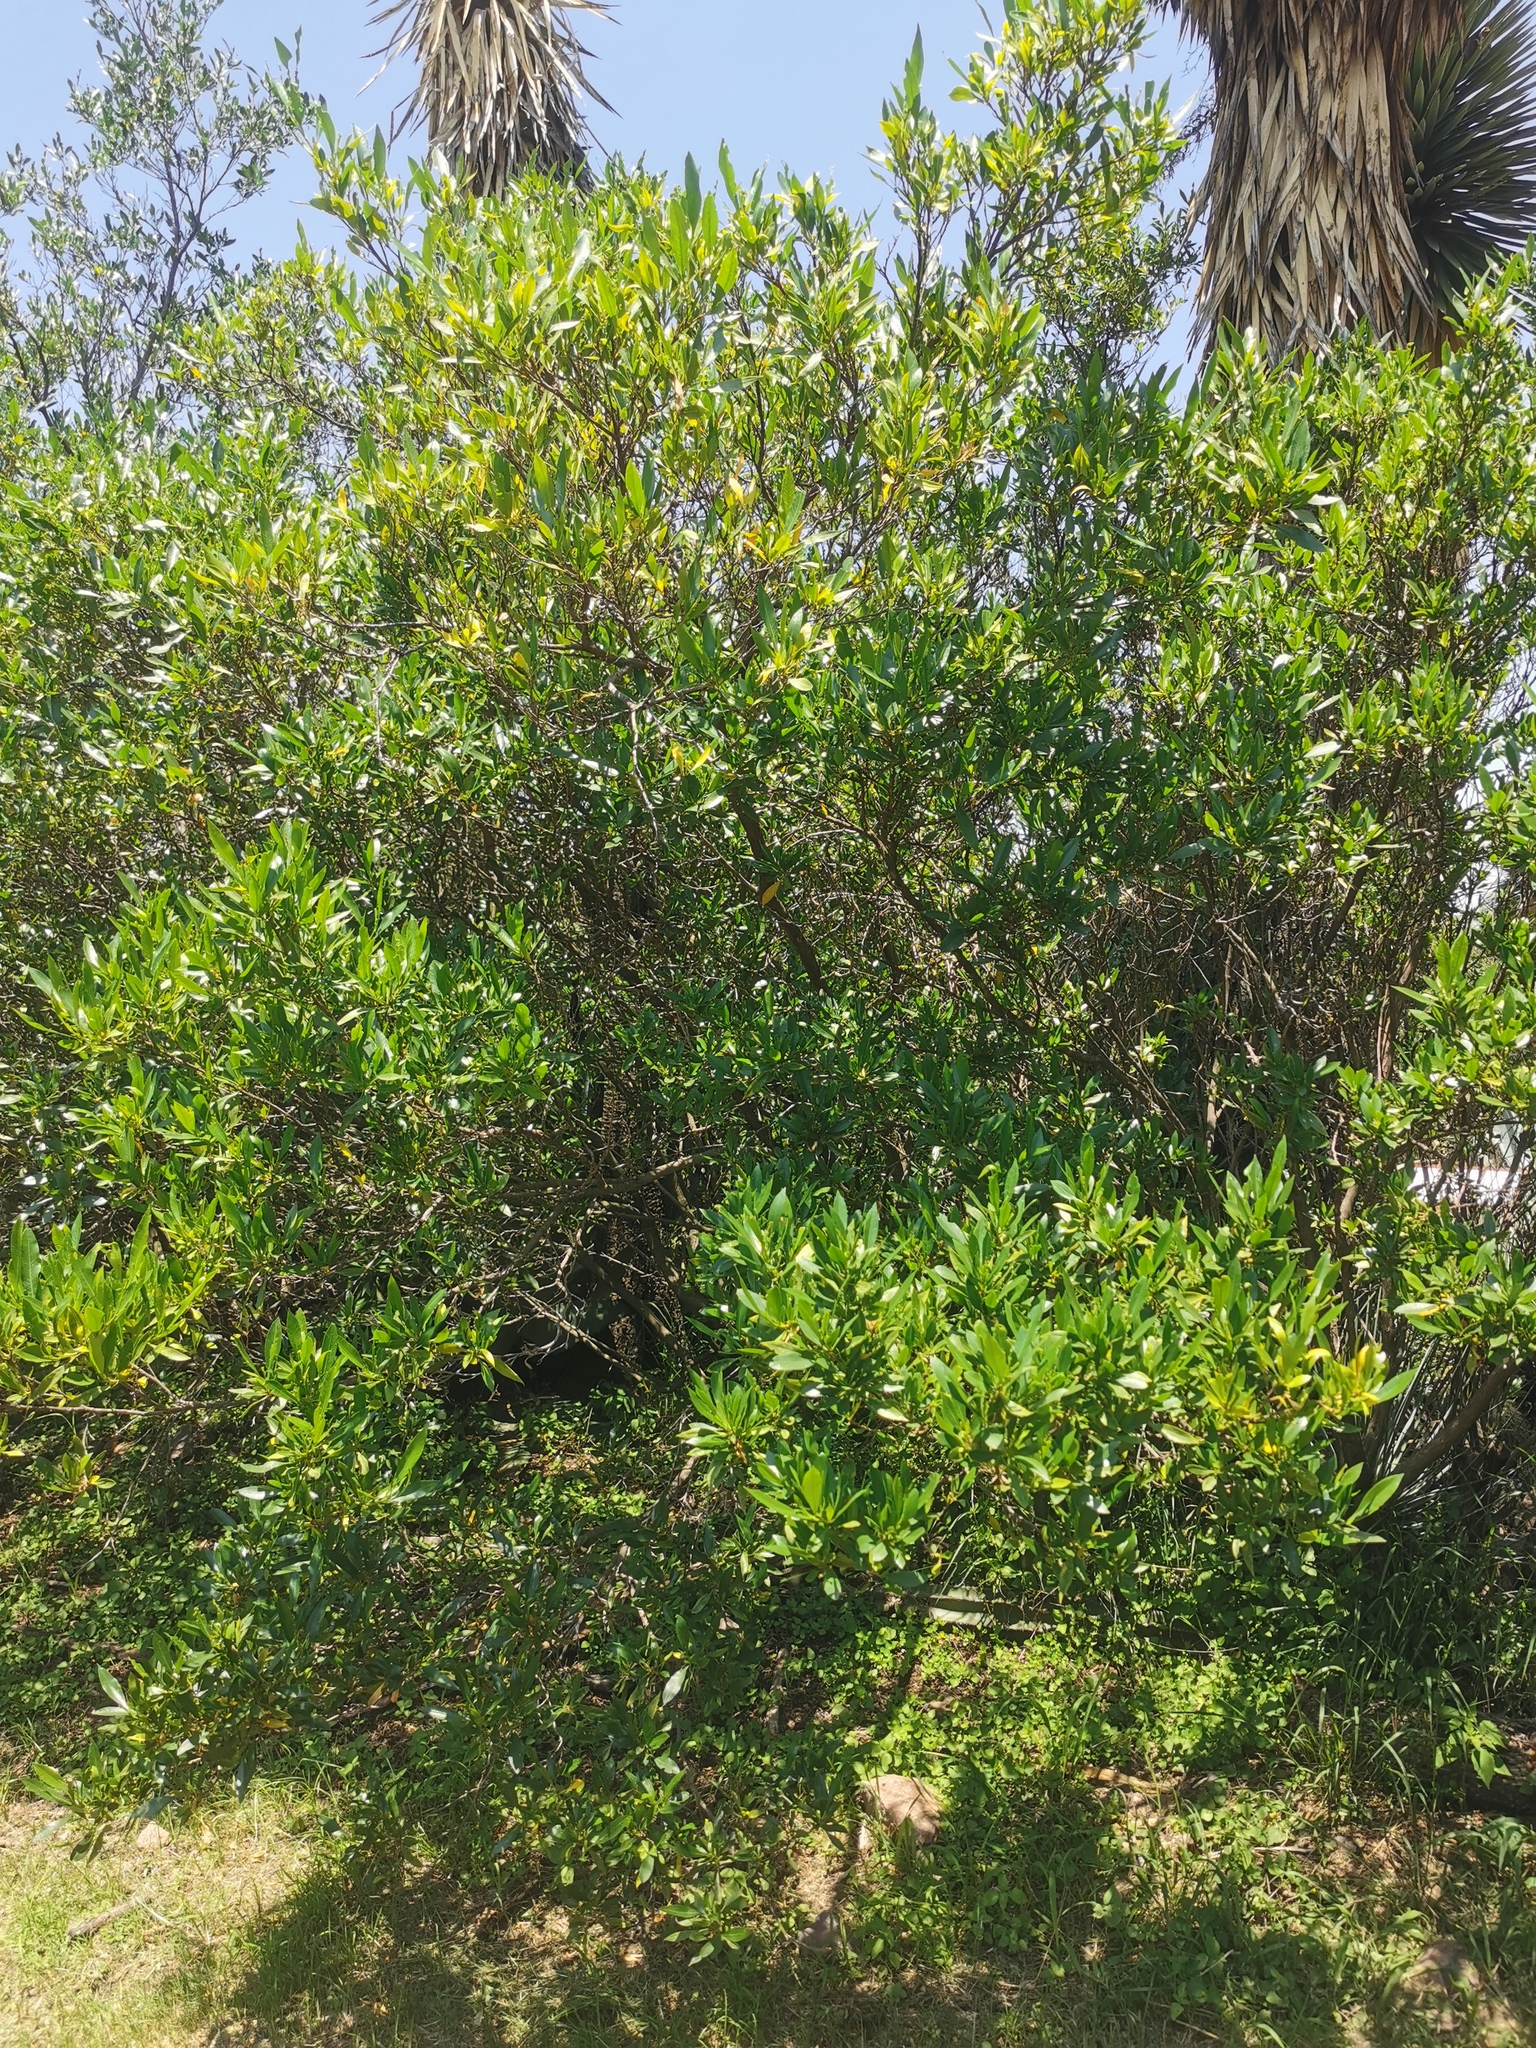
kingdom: Plantae
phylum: Tracheophyta
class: Magnoliopsida
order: Sapindales
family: Sapindaceae
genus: Dodonaea
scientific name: Dodonaea viscosa
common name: Hopbush
